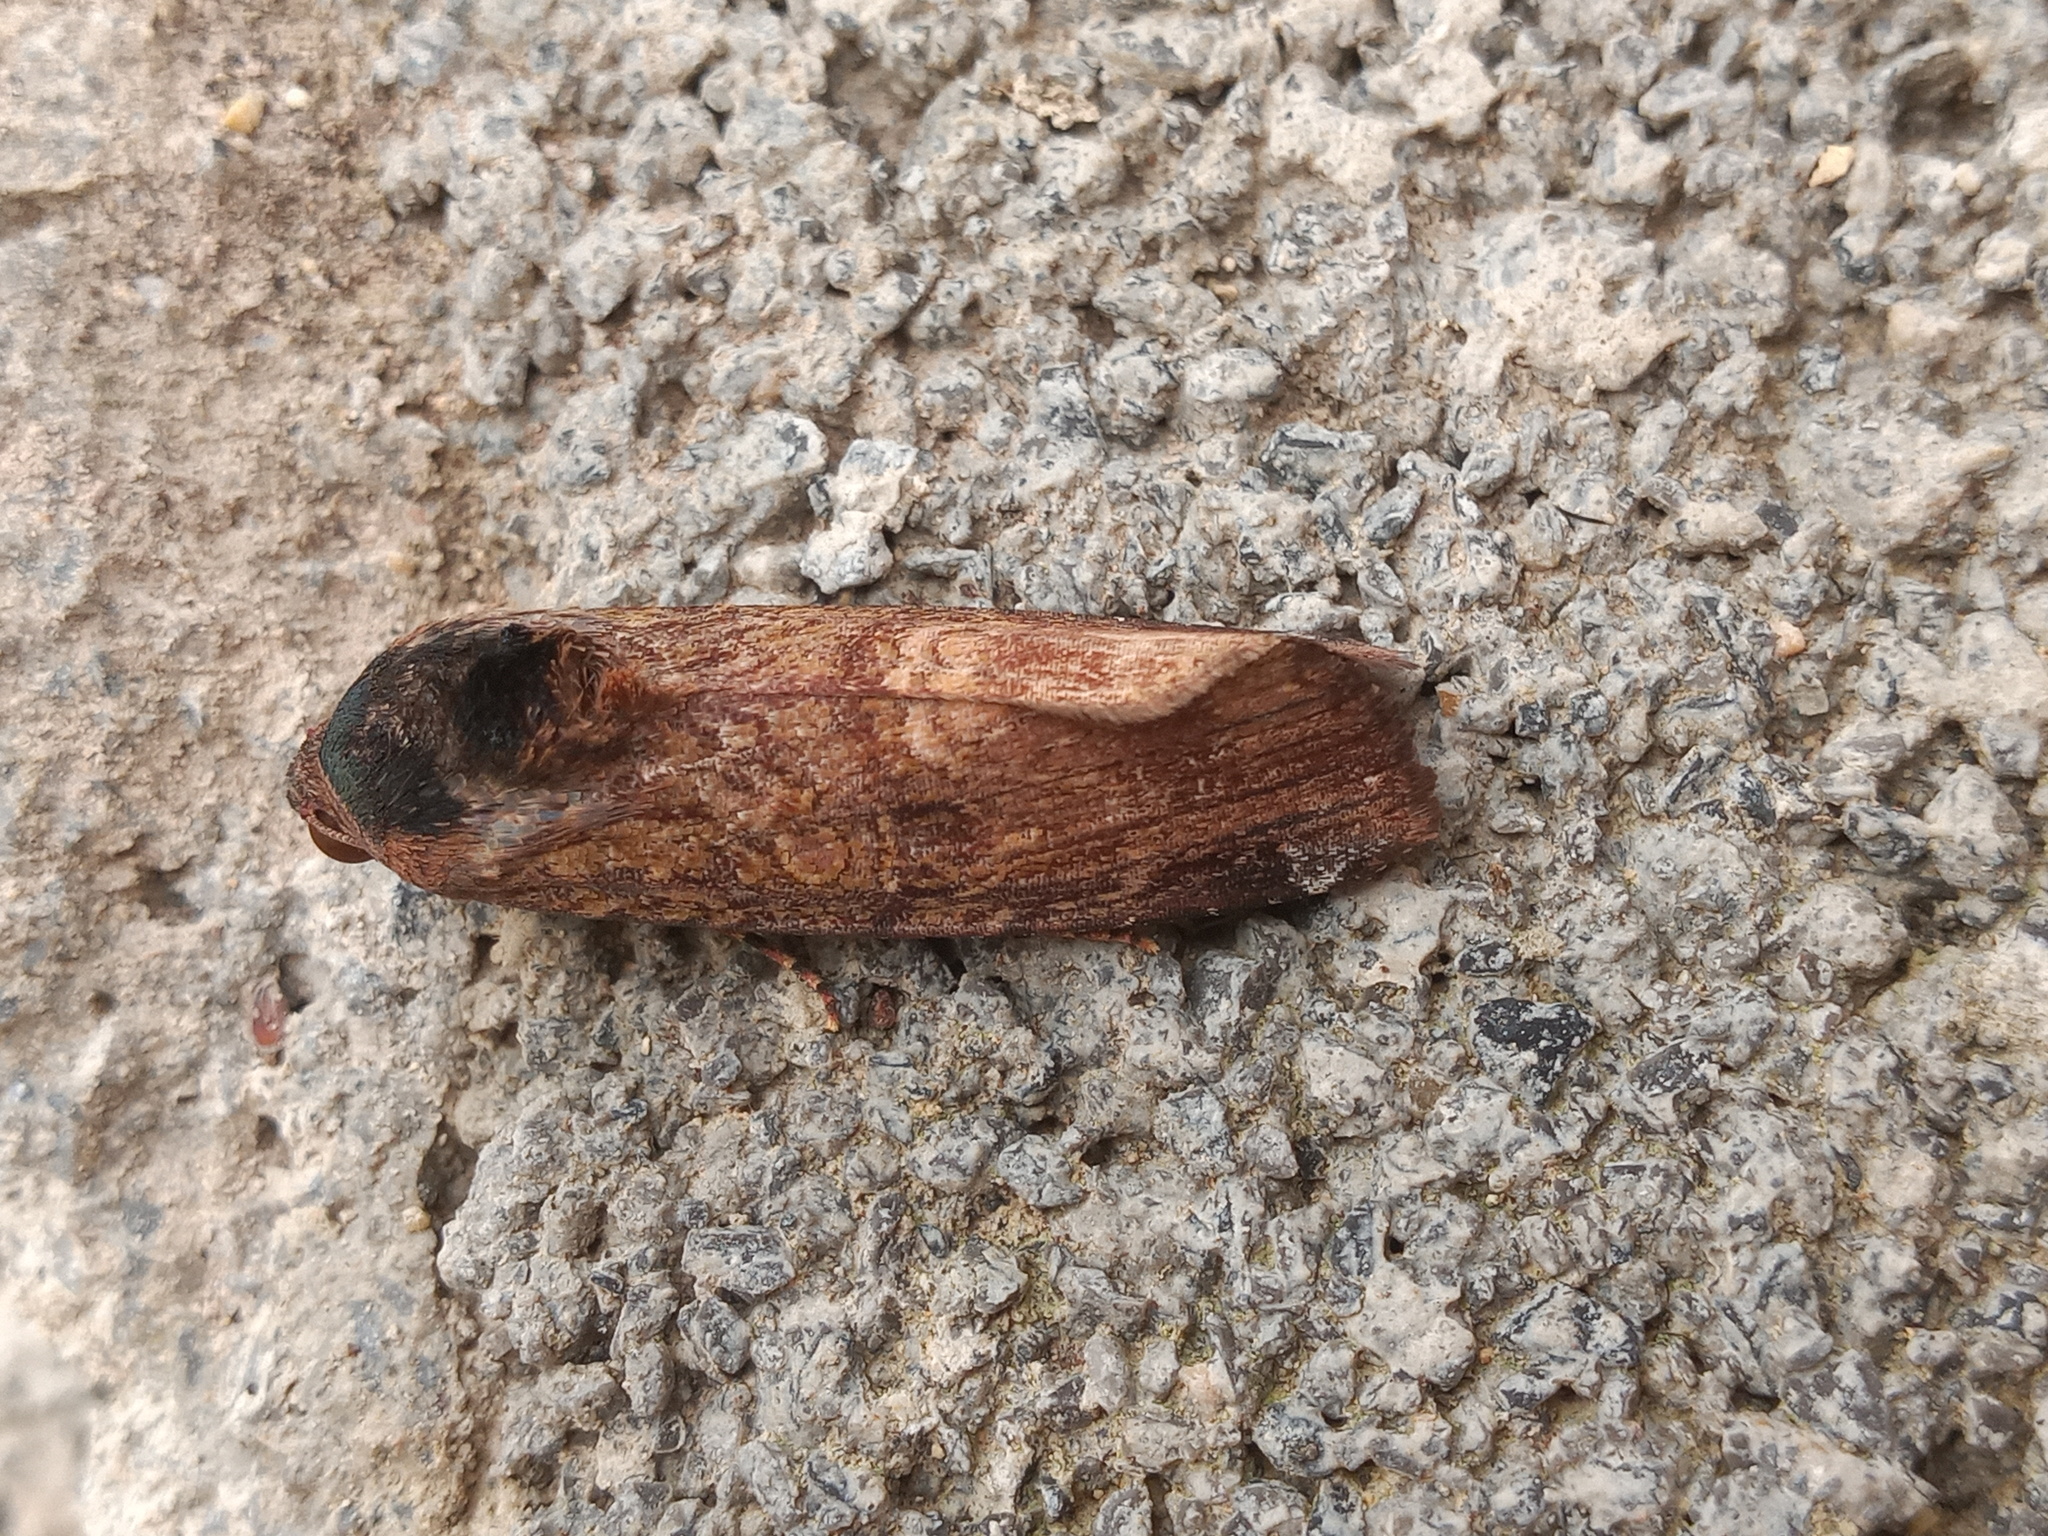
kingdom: Animalia
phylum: Arthropoda
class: Insecta
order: Lepidoptera
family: Noctuidae
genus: Magusa
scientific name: Magusa divaricata
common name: Orb narrow-winged moth
